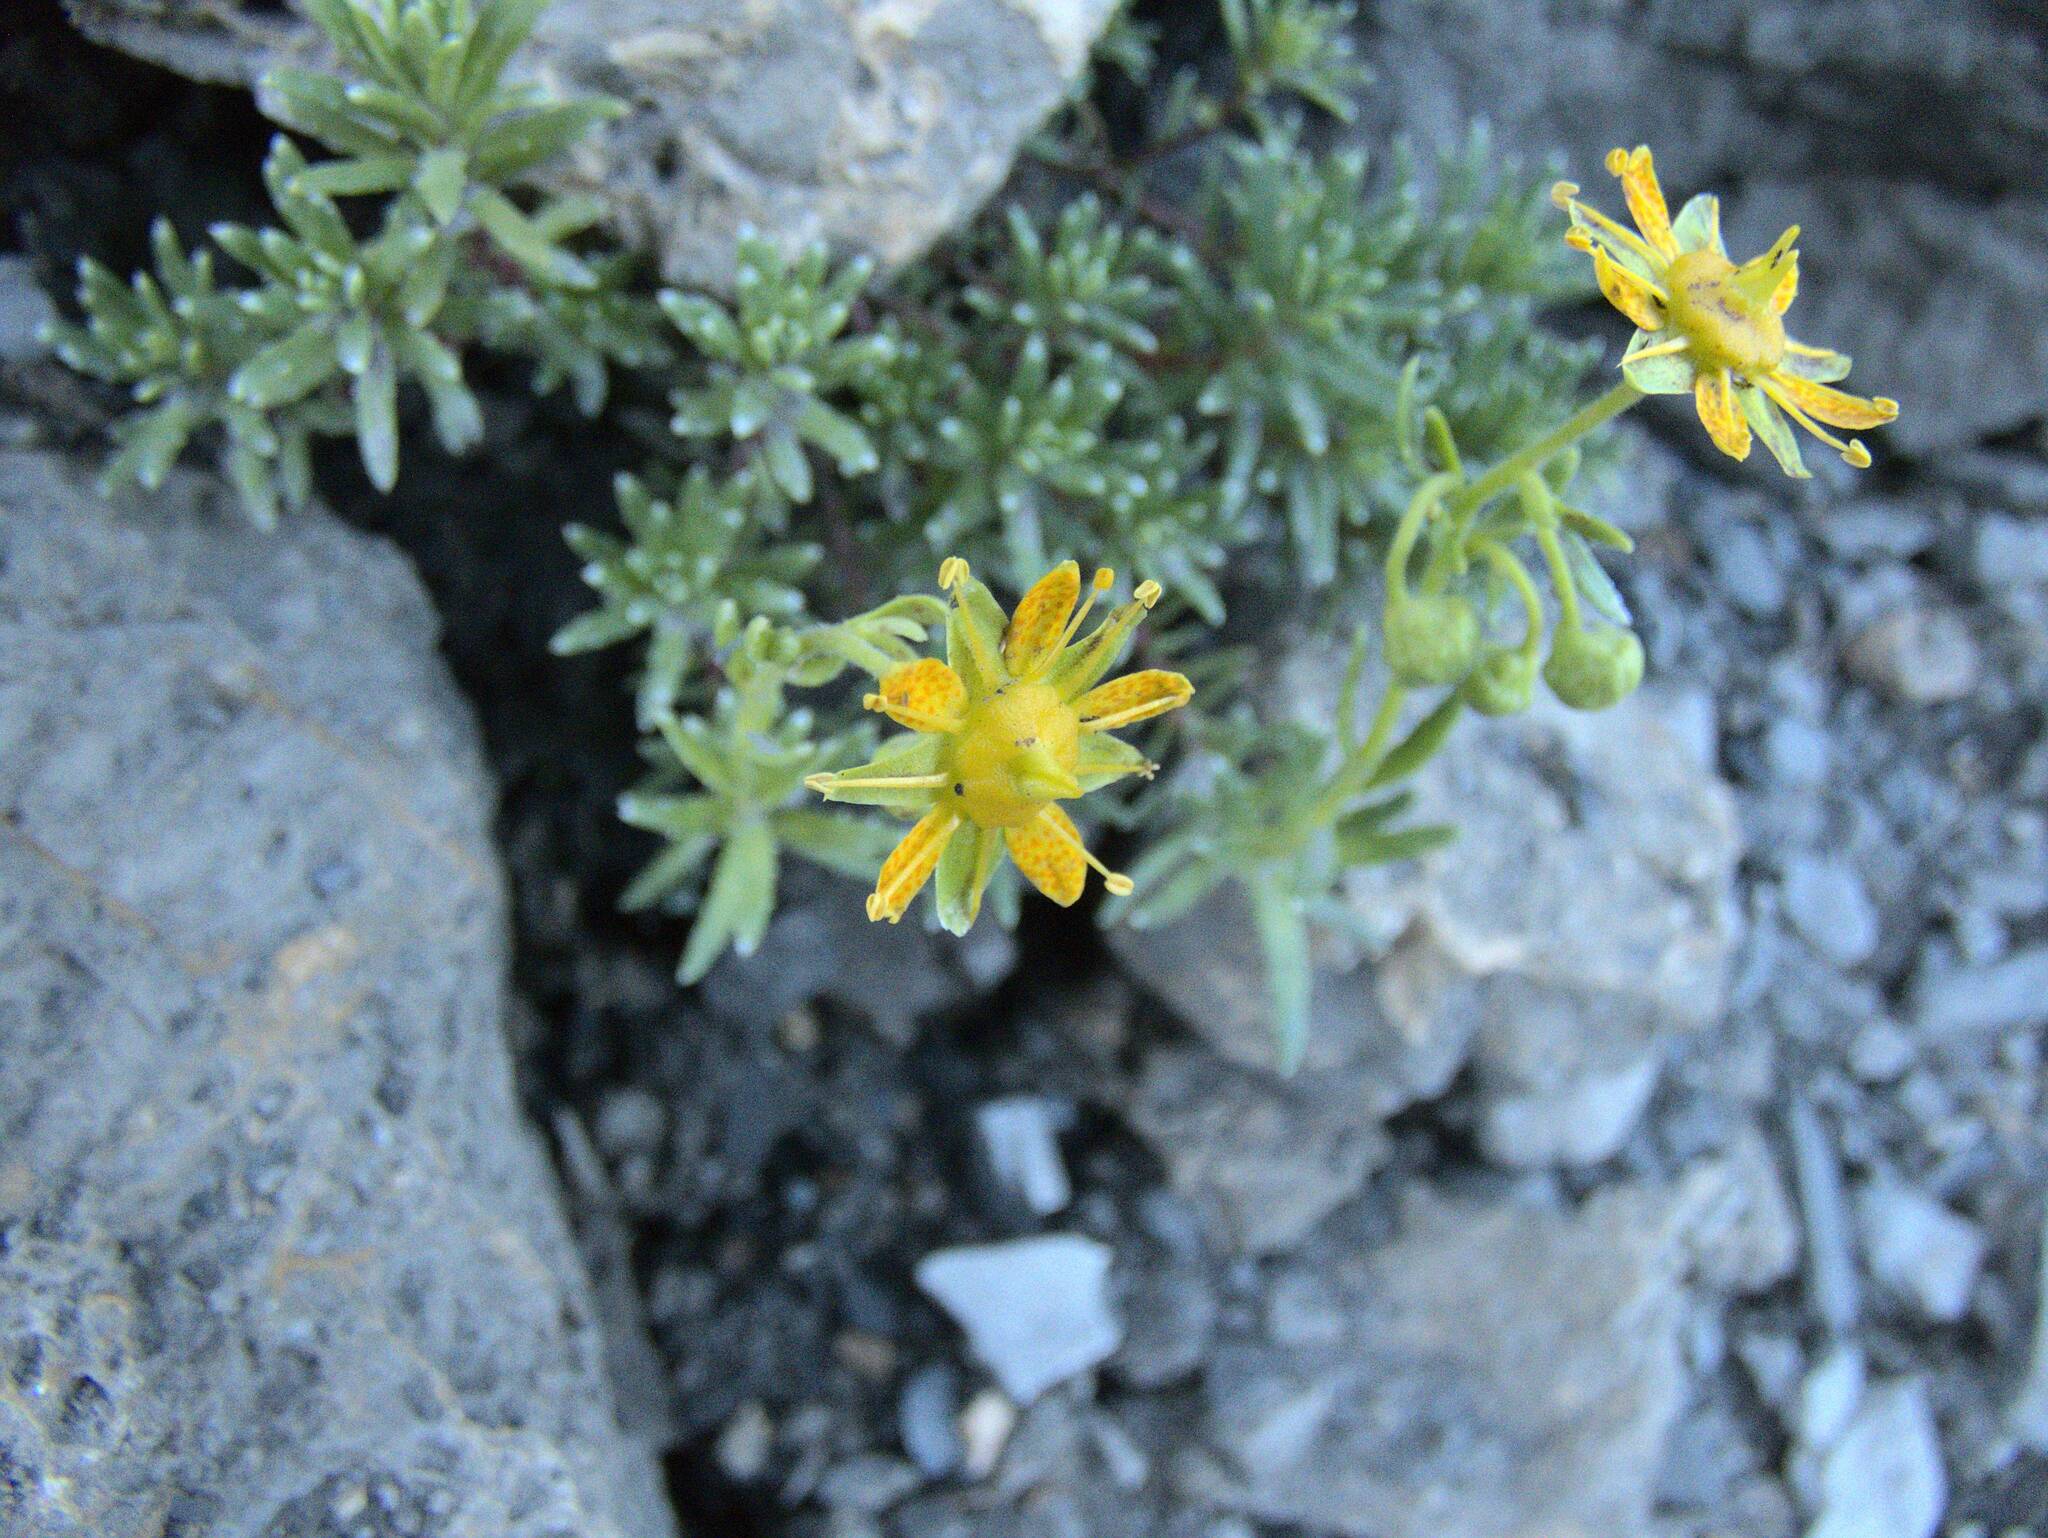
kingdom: Plantae
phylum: Tracheophyta
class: Magnoliopsida
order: Saxifragales
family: Saxifragaceae
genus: Saxifraga
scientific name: Saxifraga aizoides
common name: Yellow mountain saxifrage
